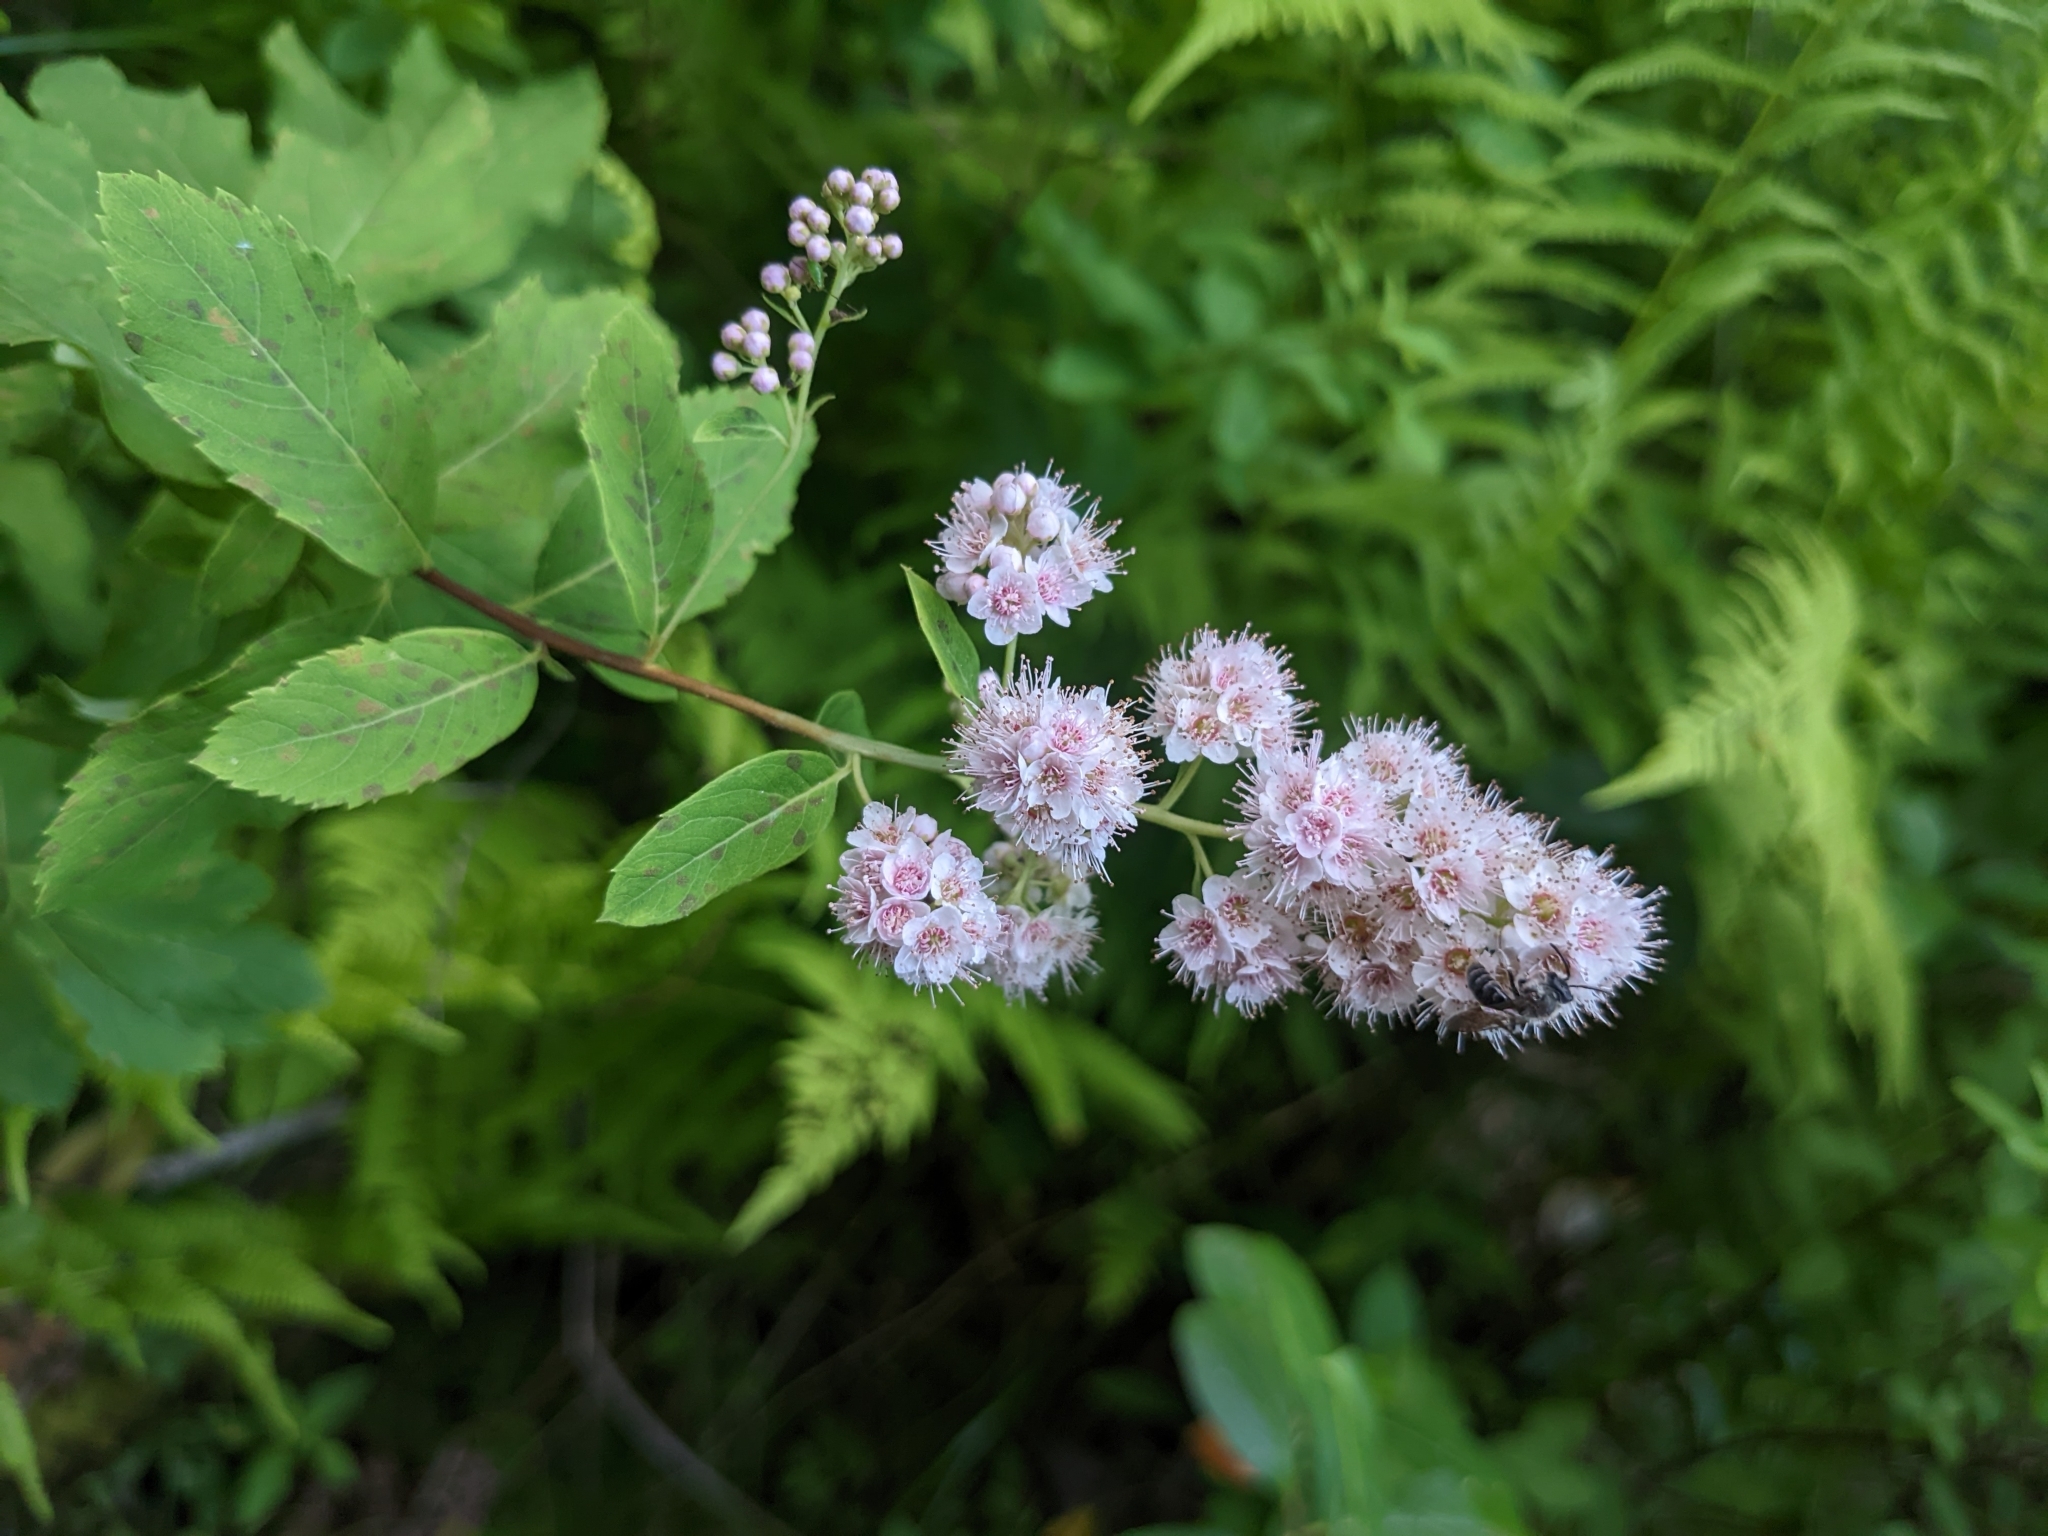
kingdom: Plantae
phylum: Tracheophyta
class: Magnoliopsida
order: Rosales
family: Rosaceae
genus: Spiraea
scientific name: Spiraea alba
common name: Pale bridewort
